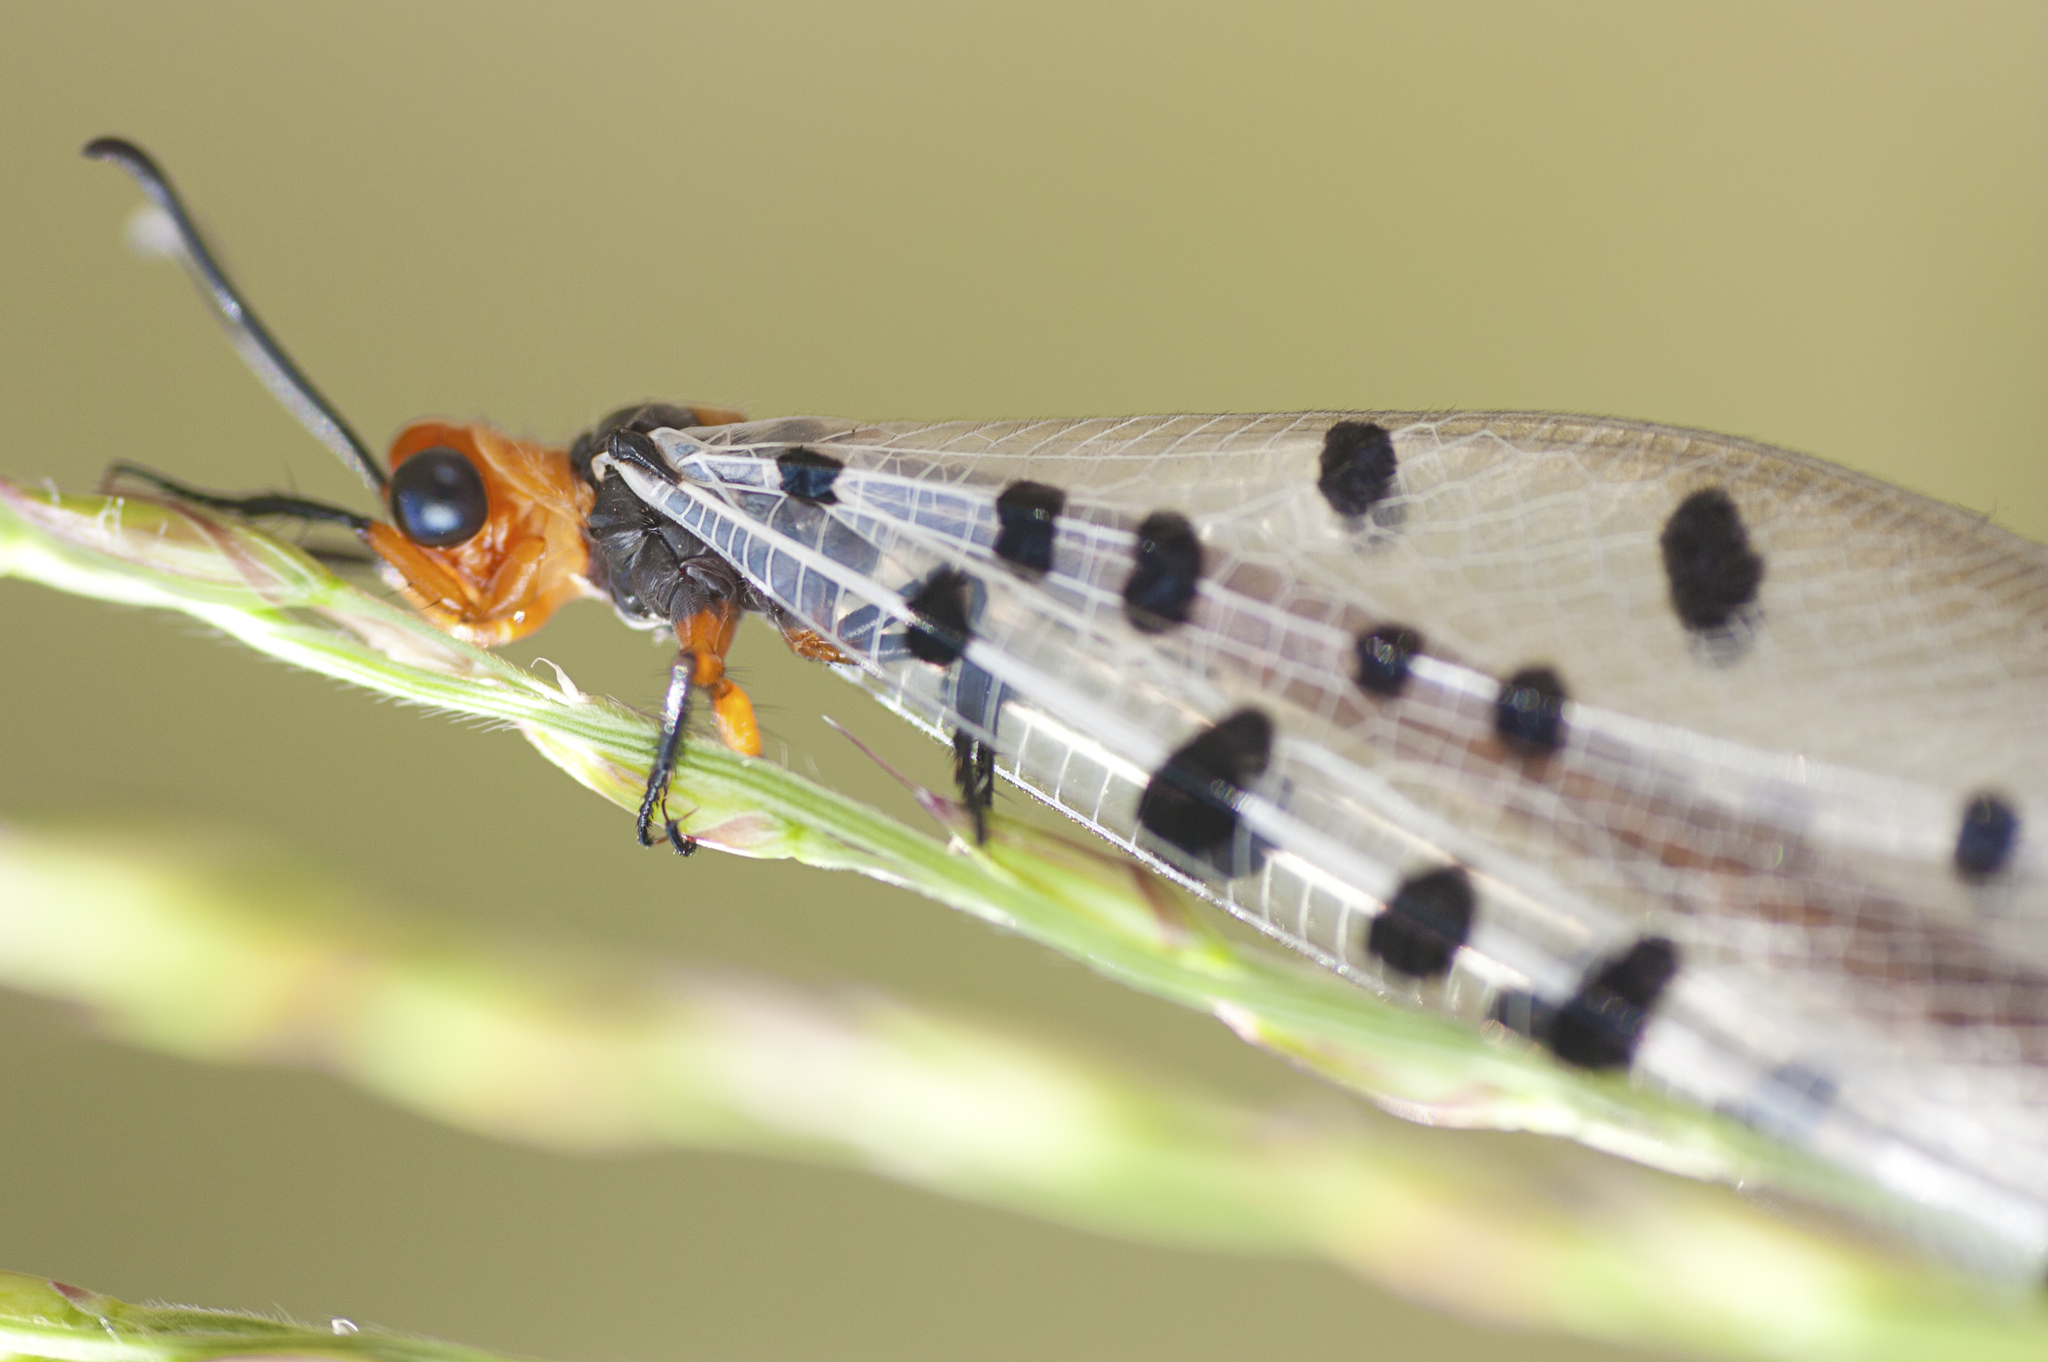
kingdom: Animalia
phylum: Arthropoda
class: Insecta
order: Neuroptera
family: Myrmeleontidae
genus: Myrmeleon
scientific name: Myrmeleon erythrocephalus
